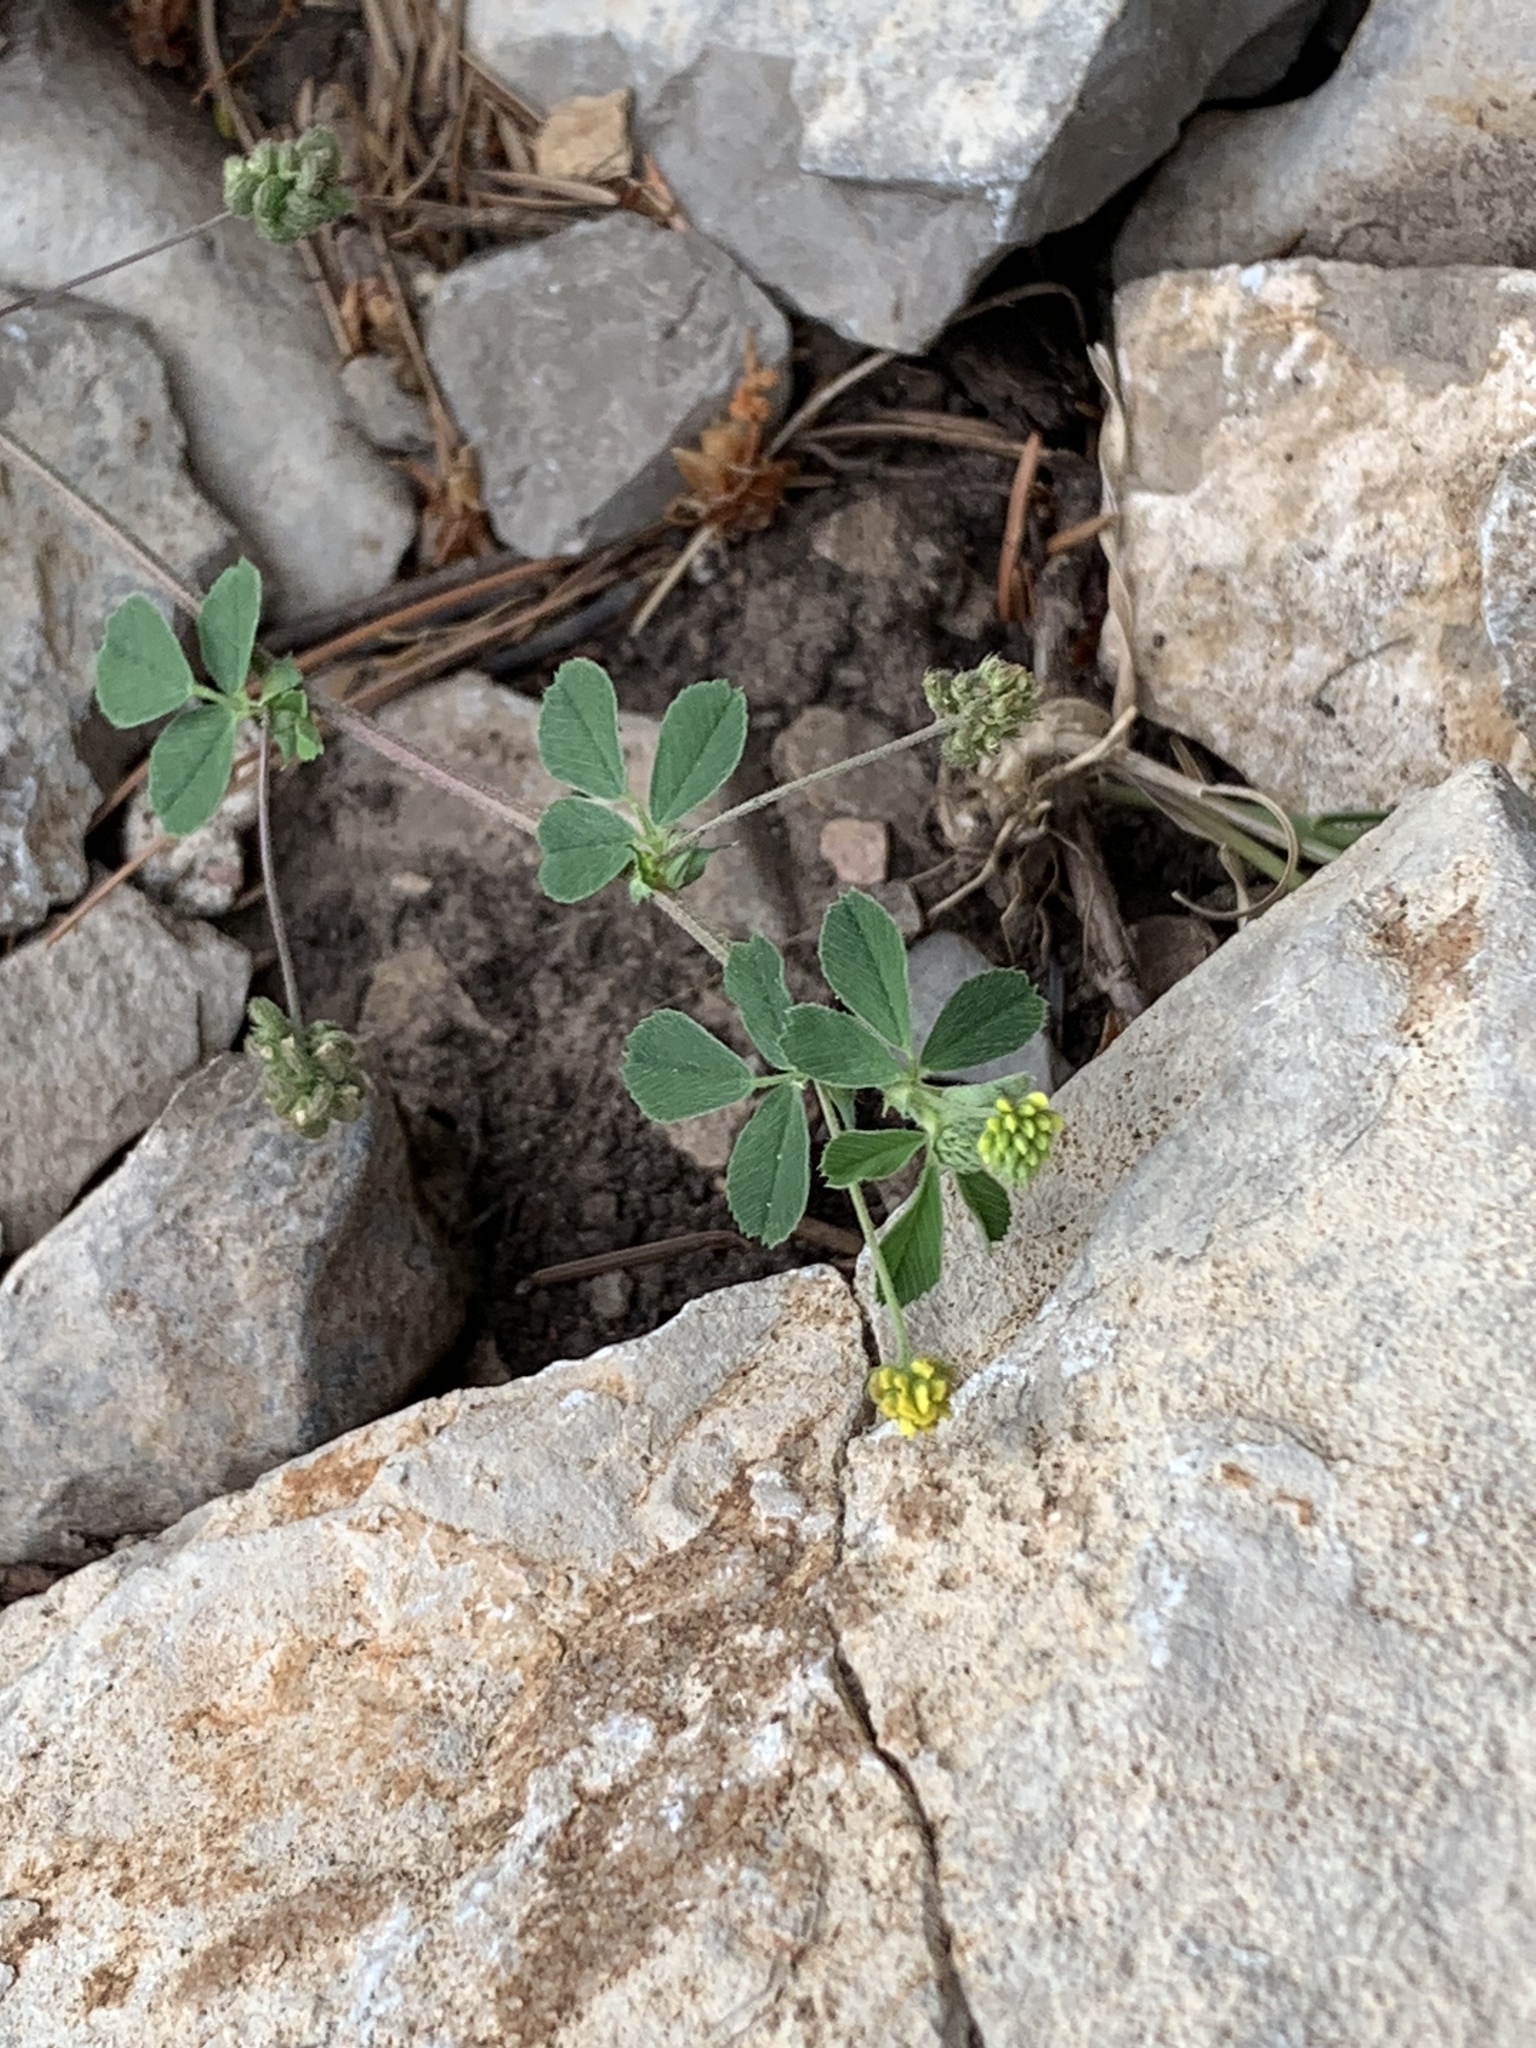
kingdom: Plantae
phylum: Tracheophyta
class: Magnoliopsida
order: Fabales
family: Fabaceae
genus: Medicago
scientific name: Medicago lupulina
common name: Black medick
